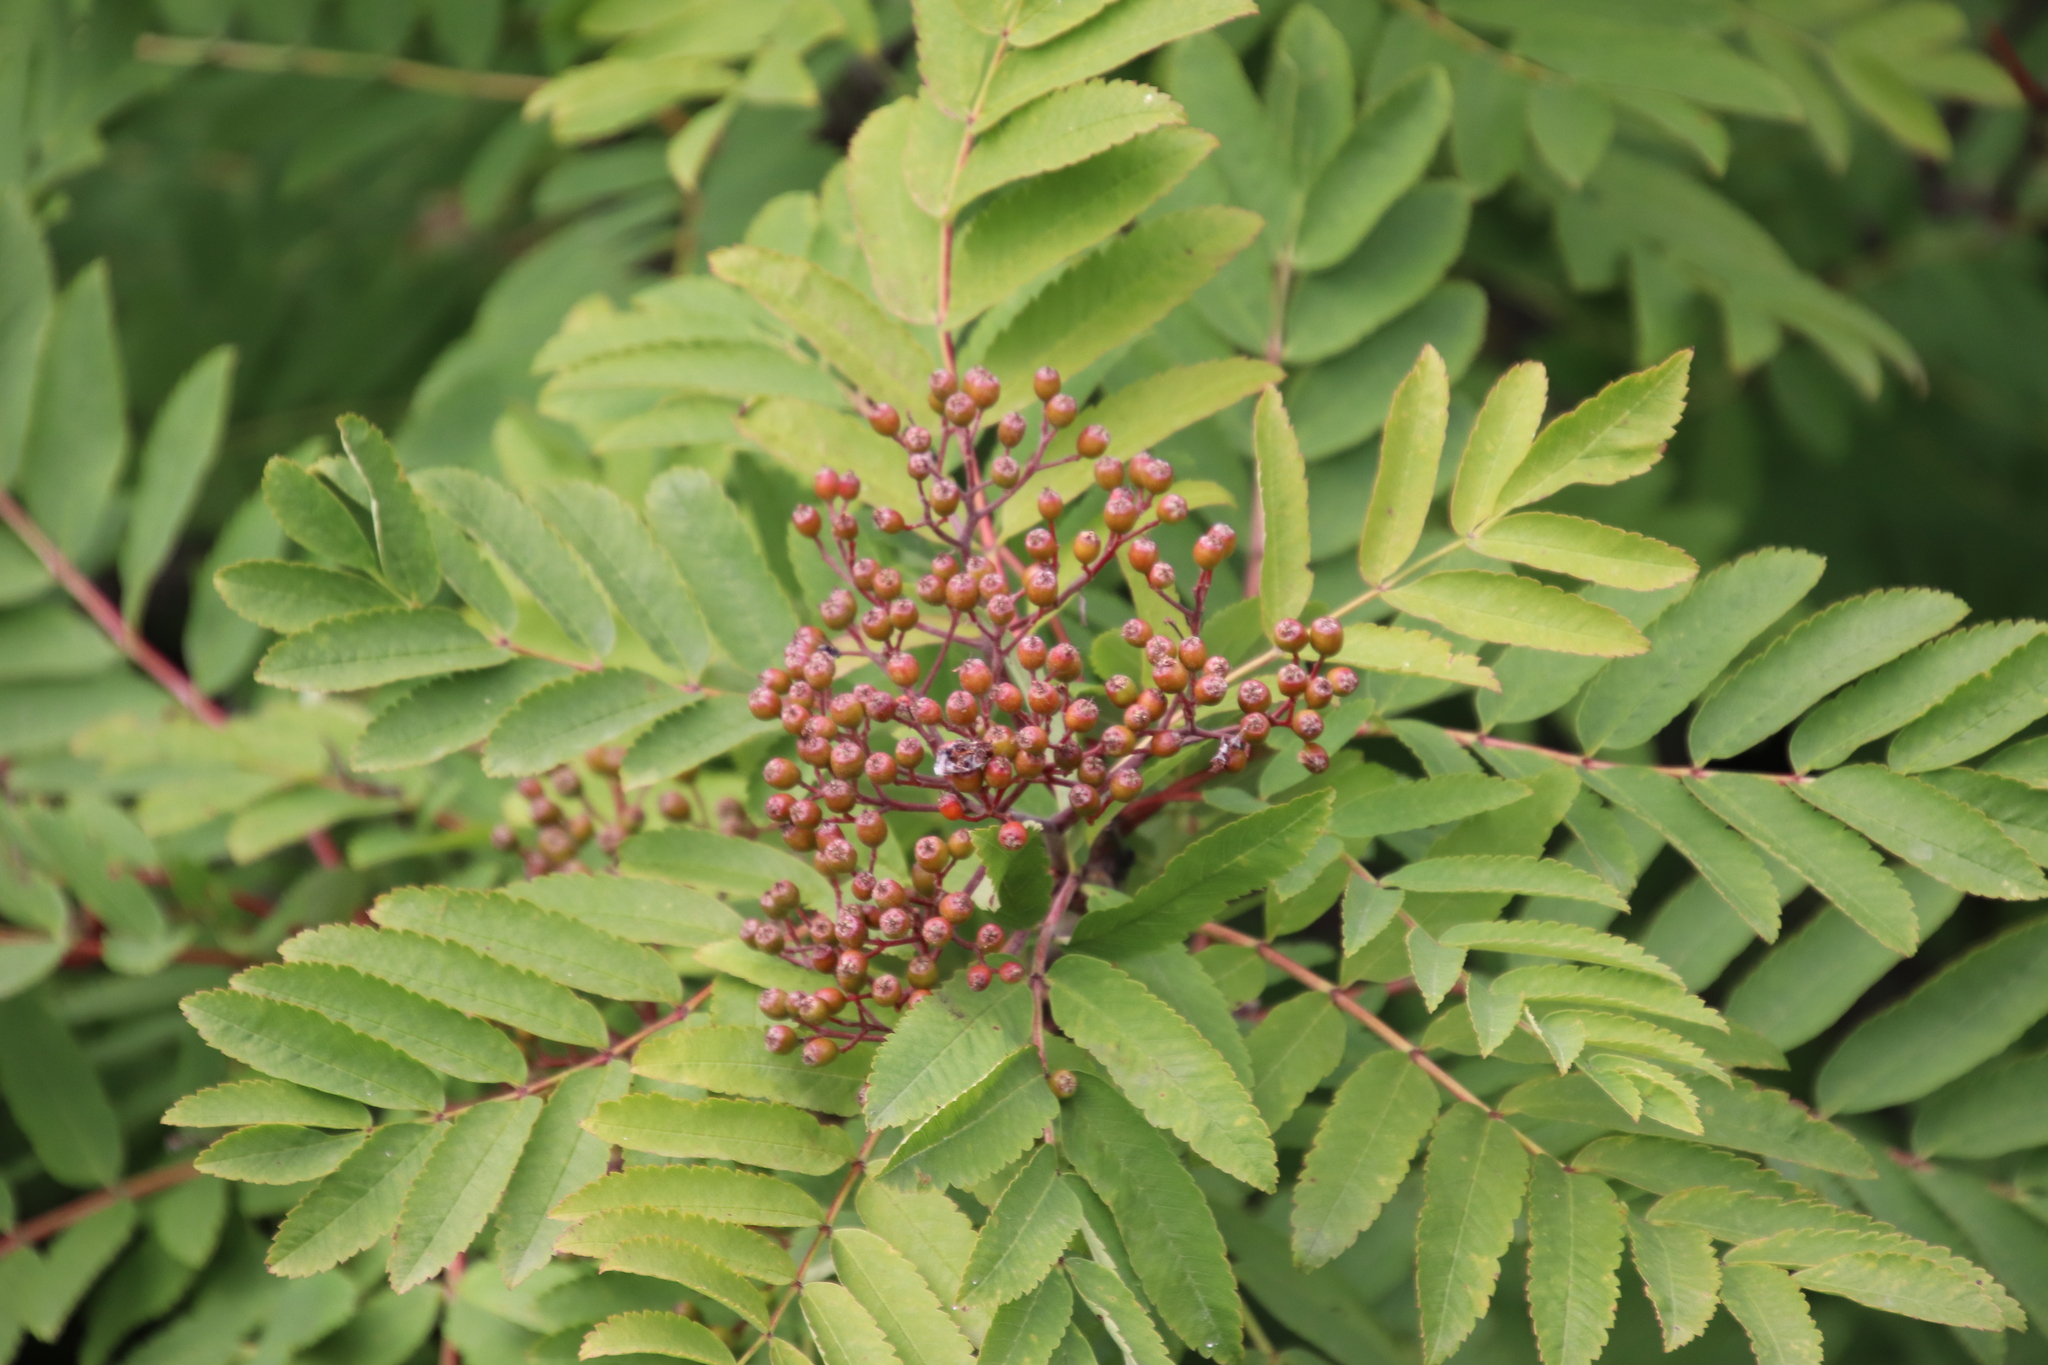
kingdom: Plantae
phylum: Tracheophyta
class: Magnoliopsida
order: Rosales
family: Rosaceae
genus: Sorbus
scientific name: Sorbus aucuparia
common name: Rowan
